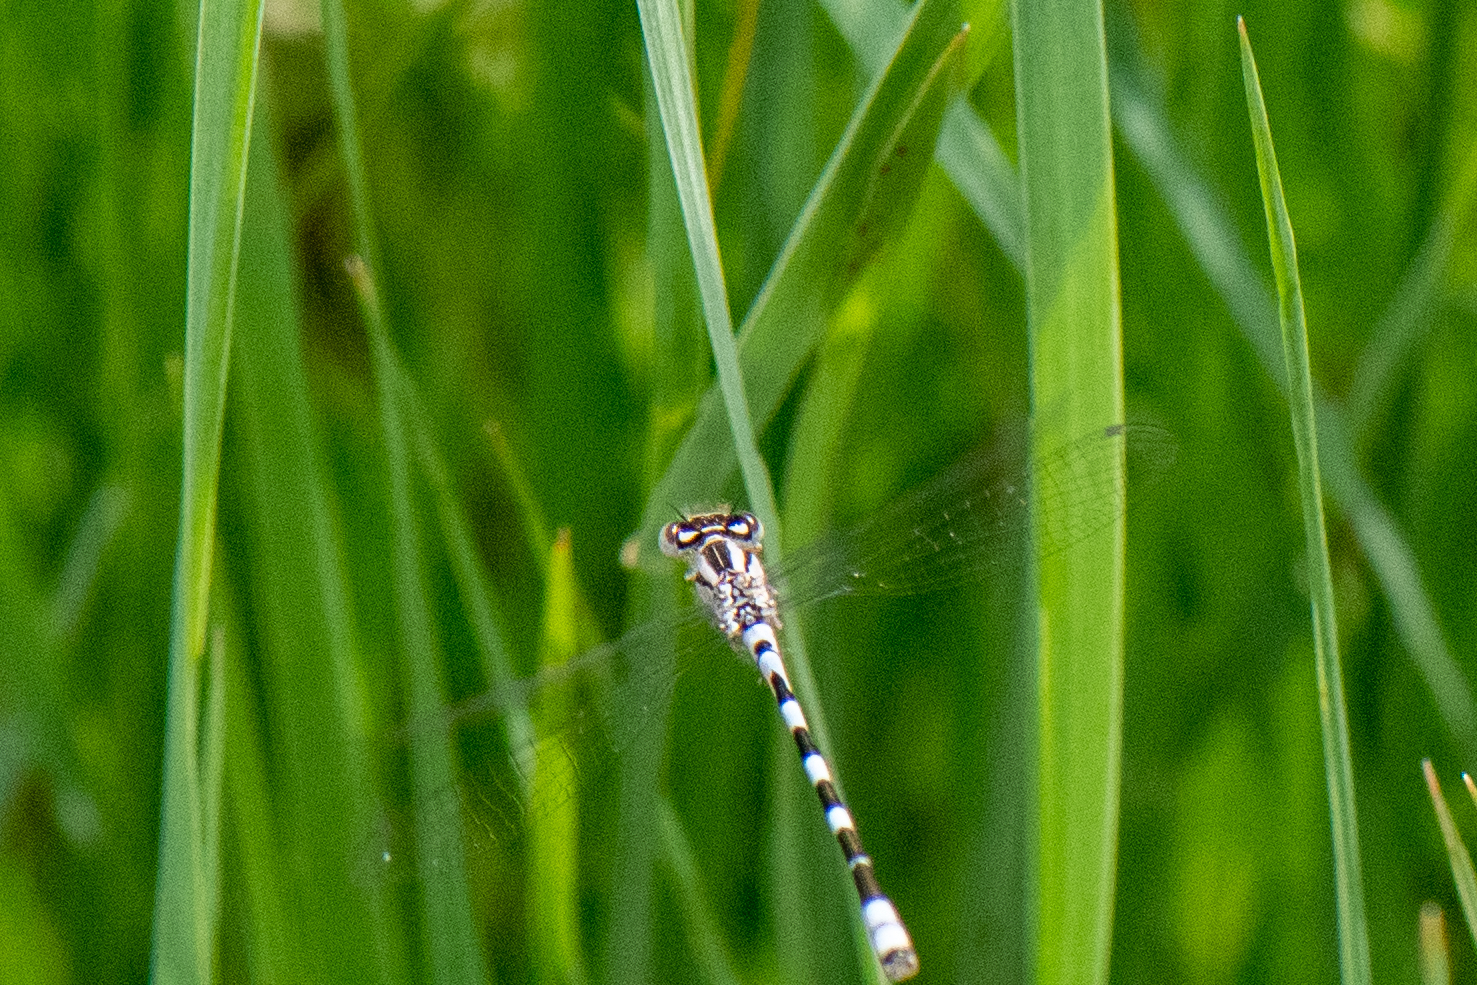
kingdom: Animalia
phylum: Arthropoda
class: Insecta
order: Odonata
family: Coenagrionidae
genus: Enallagma
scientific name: Enallagma carunculatum
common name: Tule bluet
